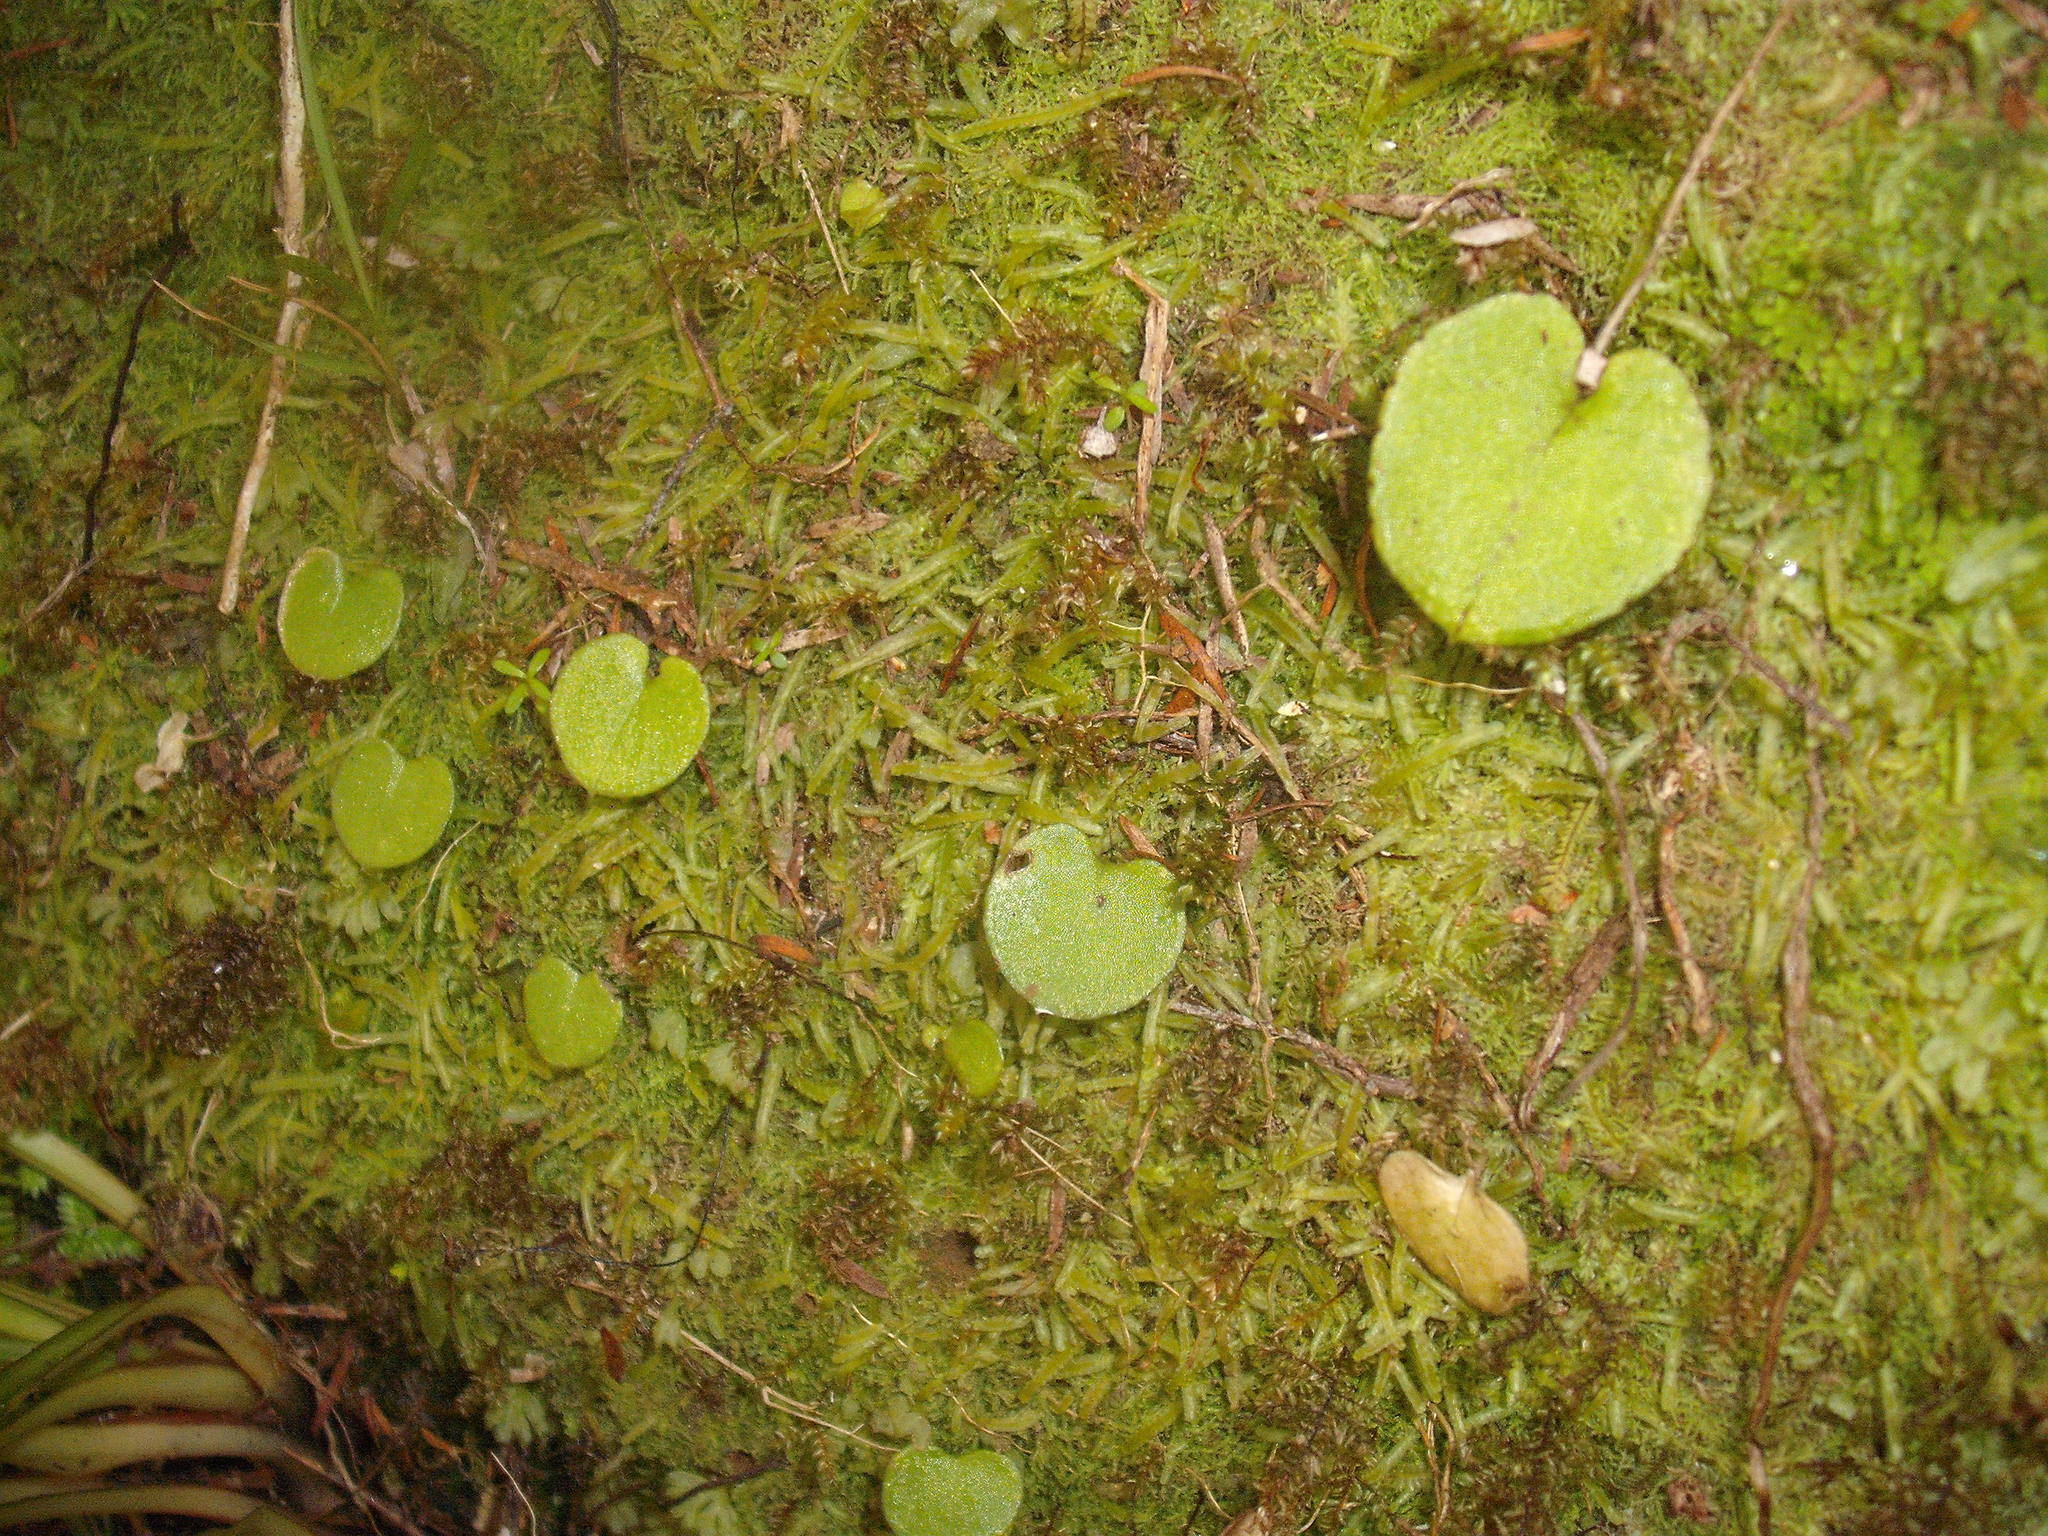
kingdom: Plantae
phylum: Tracheophyta
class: Liliopsida
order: Asparagales
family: Orchidaceae
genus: Corybas
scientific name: Corybas rivularis
